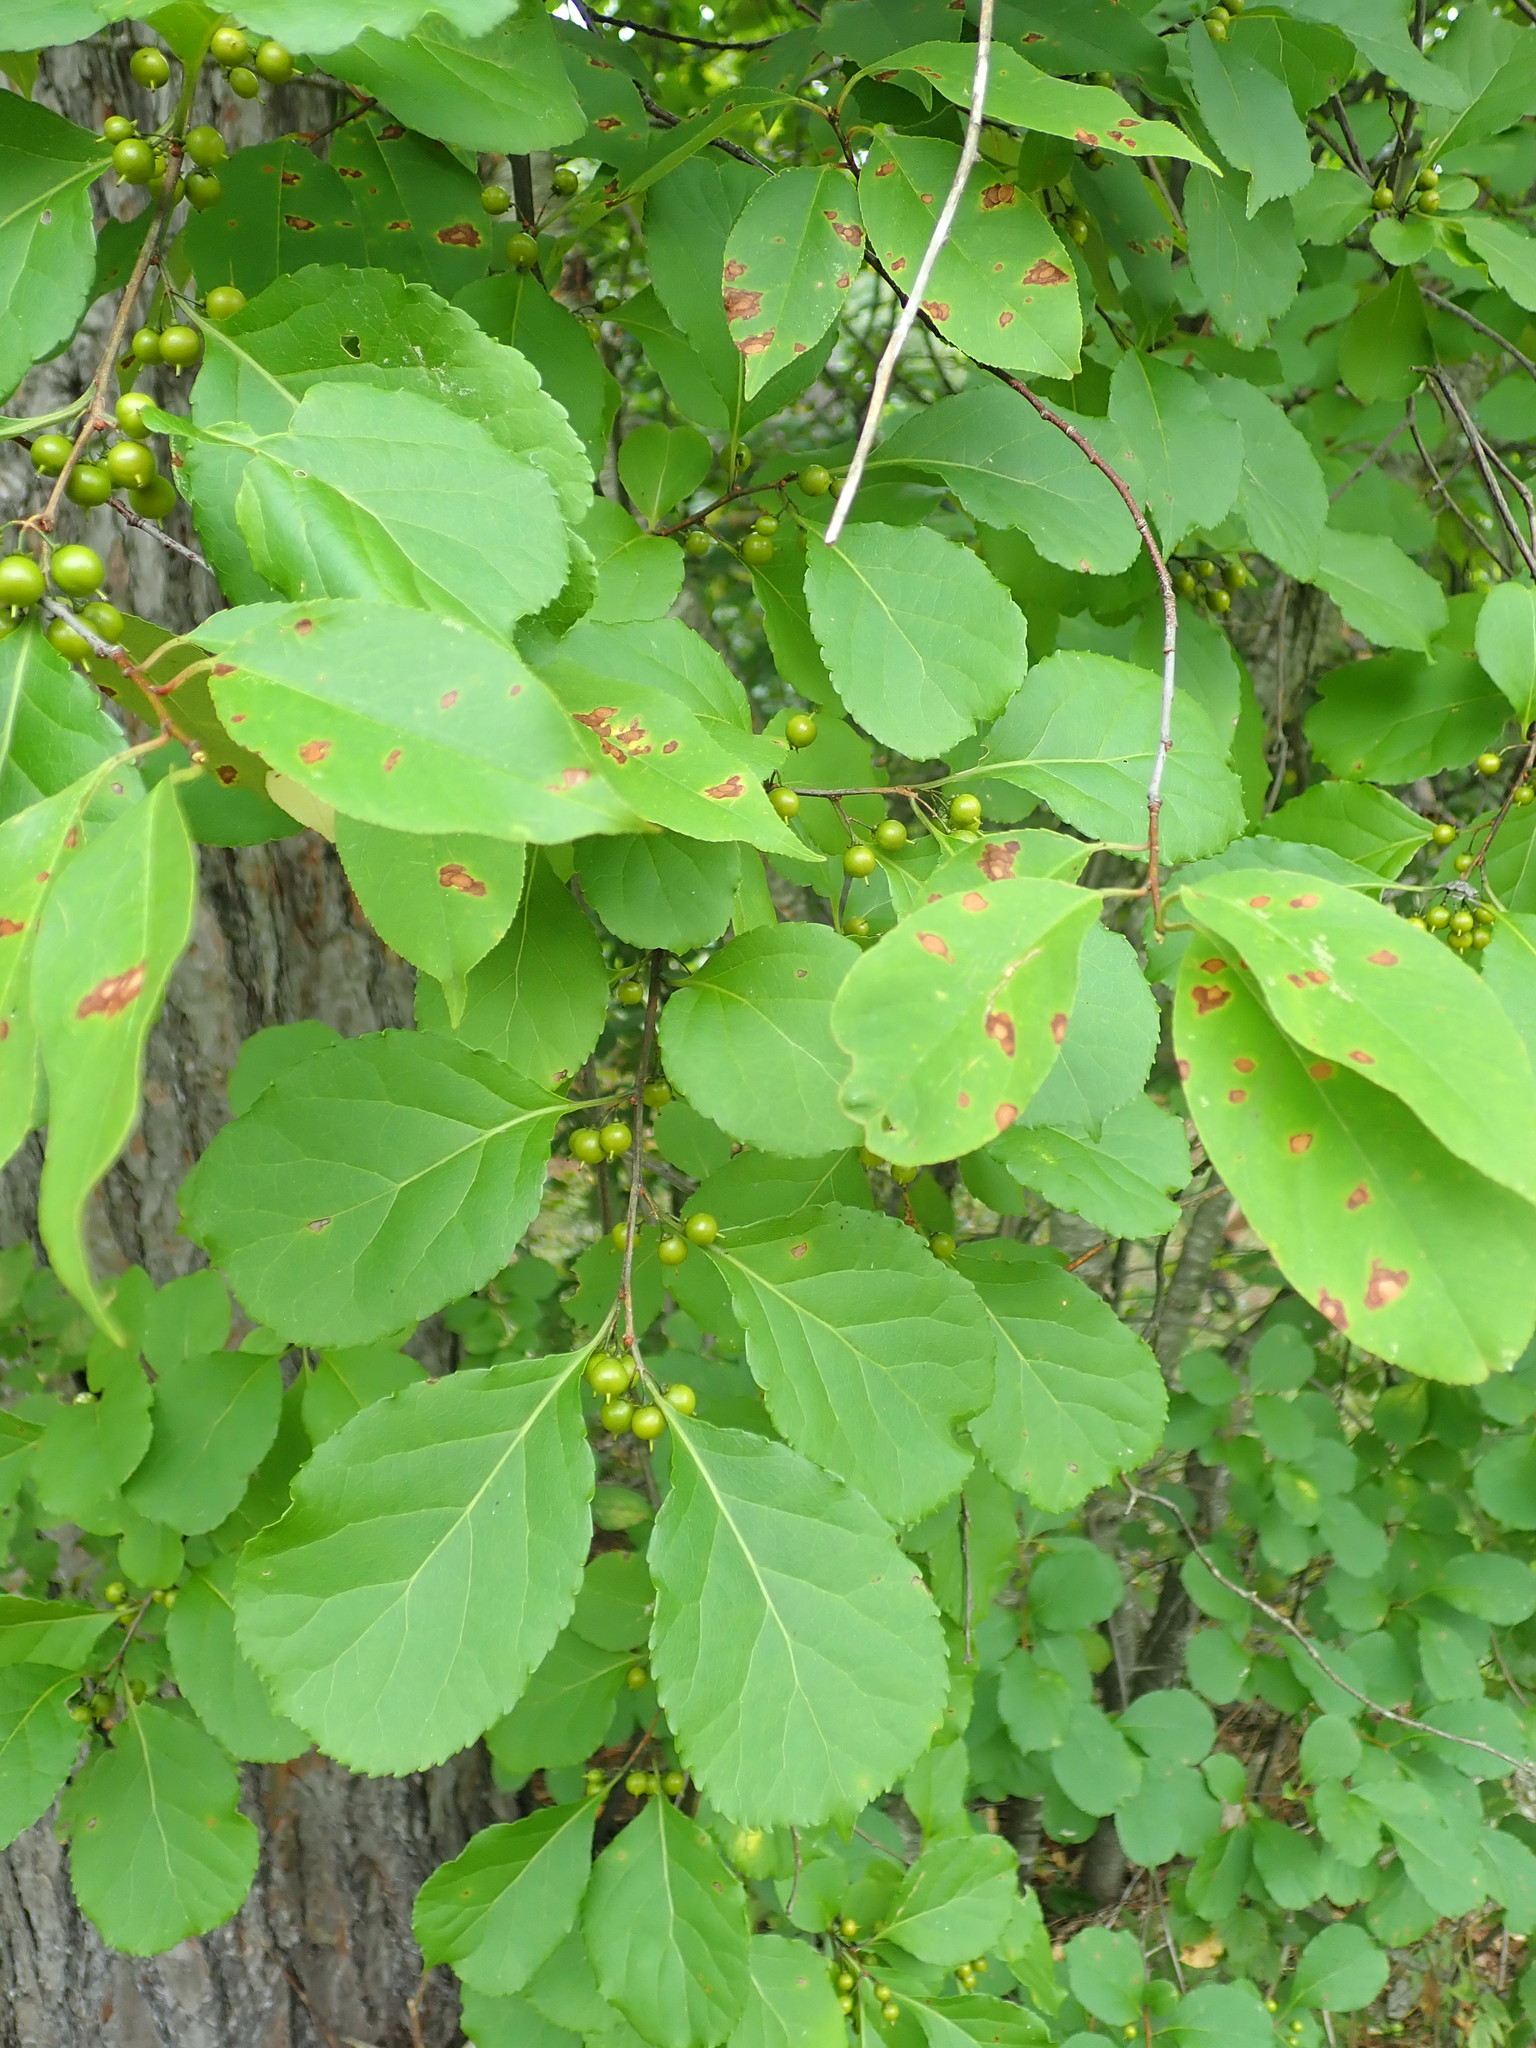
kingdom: Plantae
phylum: Tracheophyta
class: Magnoliopsida
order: Celastrales
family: Celastraceae
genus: Celastrus
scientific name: Celastrus orbiculatus
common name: Oriental bittersweet
